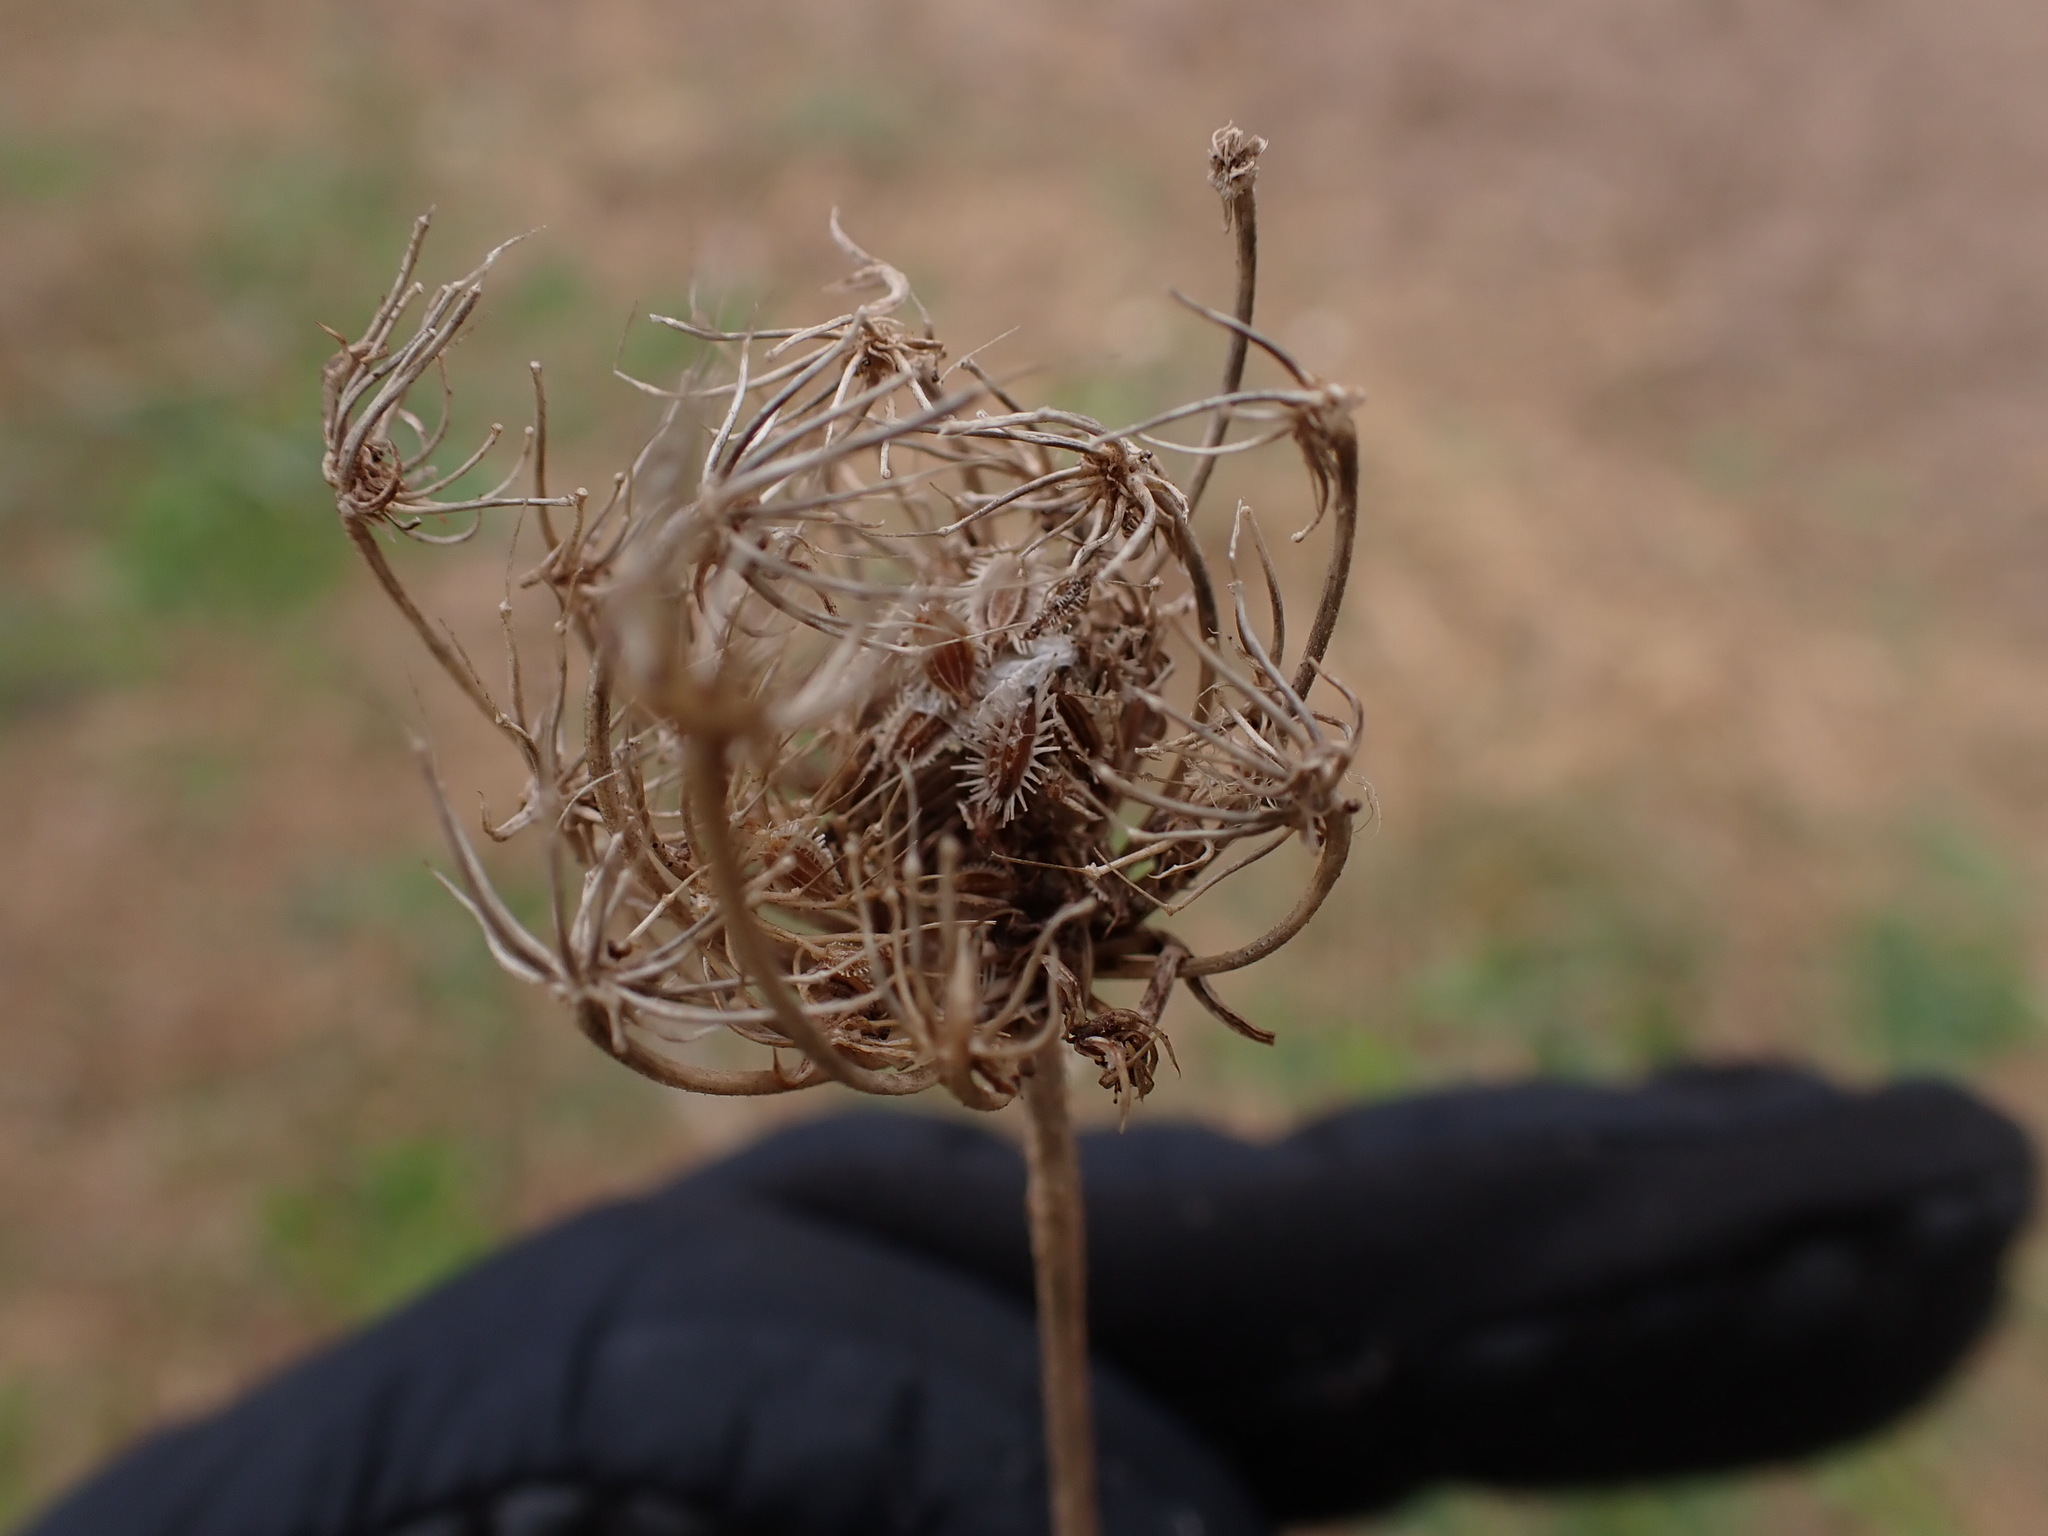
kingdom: Plantae
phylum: Tracheophyta
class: Magnoliopsida
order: Apiales
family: Apiaceae
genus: Daucus
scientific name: Daucus carota
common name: Wild carrot
